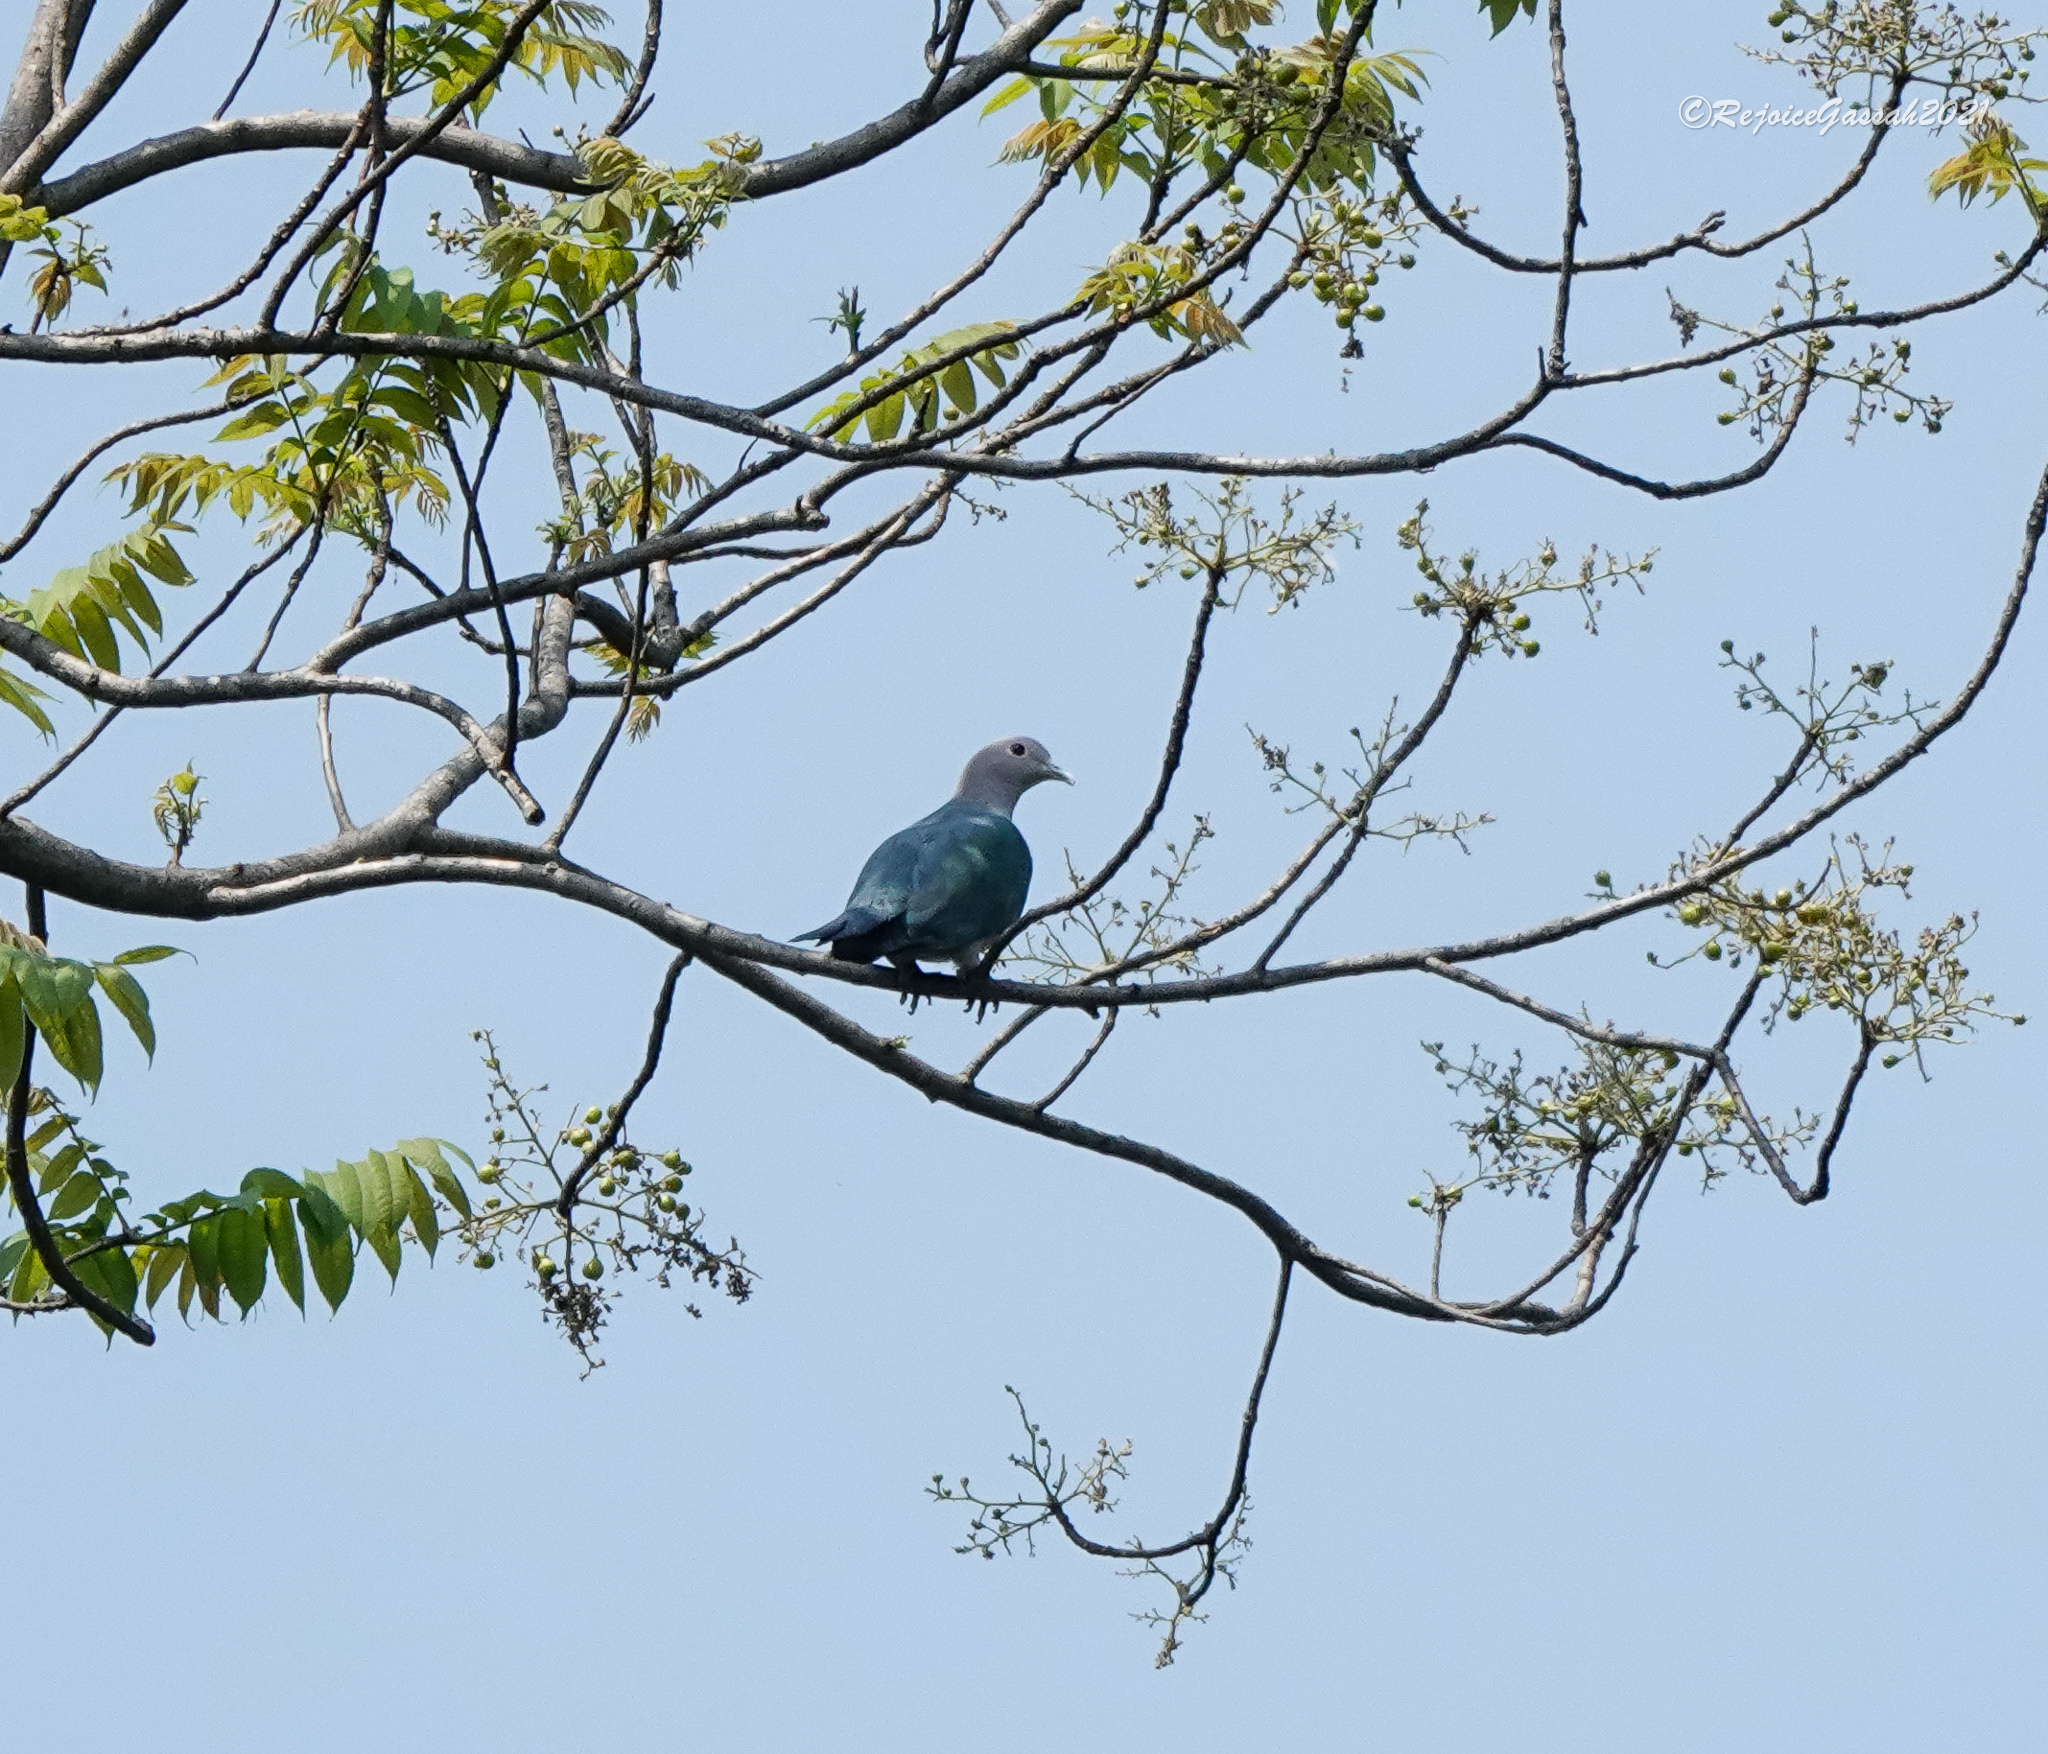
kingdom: Animalia
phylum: Chordata
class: Aves
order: Columbiformes
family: Columbidae
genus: Ducula
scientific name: Ducula aenea
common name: Green imperial pigeon
